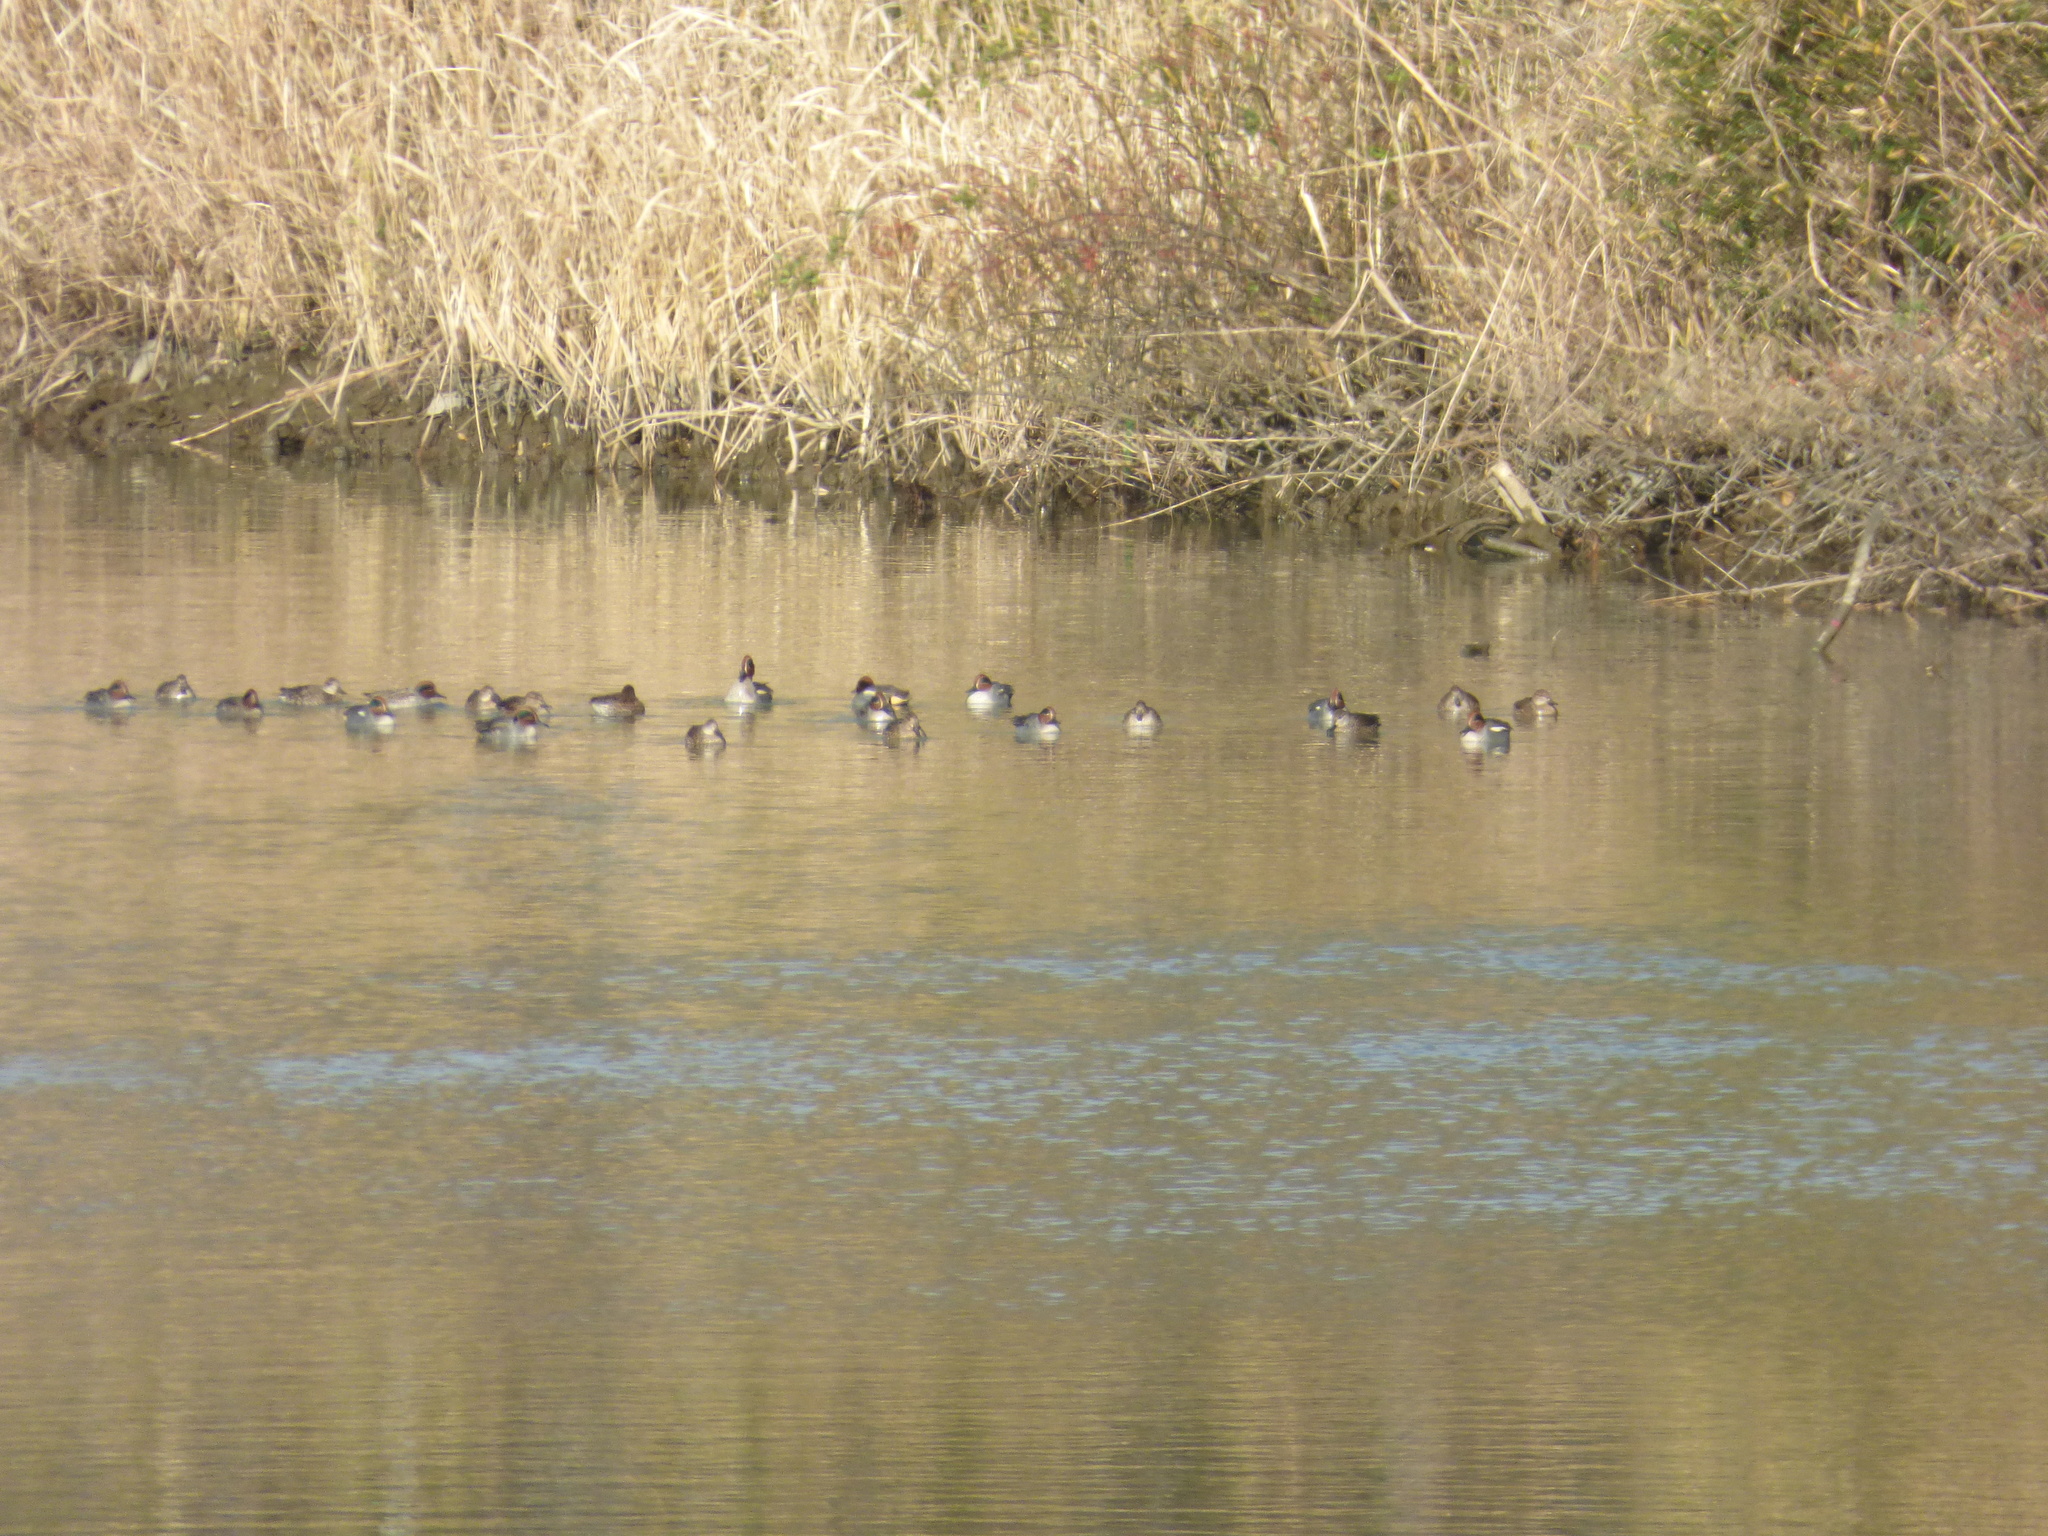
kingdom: Animalia
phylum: Chordata
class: Aves
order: Anseriformes
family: Anatidae
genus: Anas
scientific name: Anas crecca
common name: Eurasian teal
